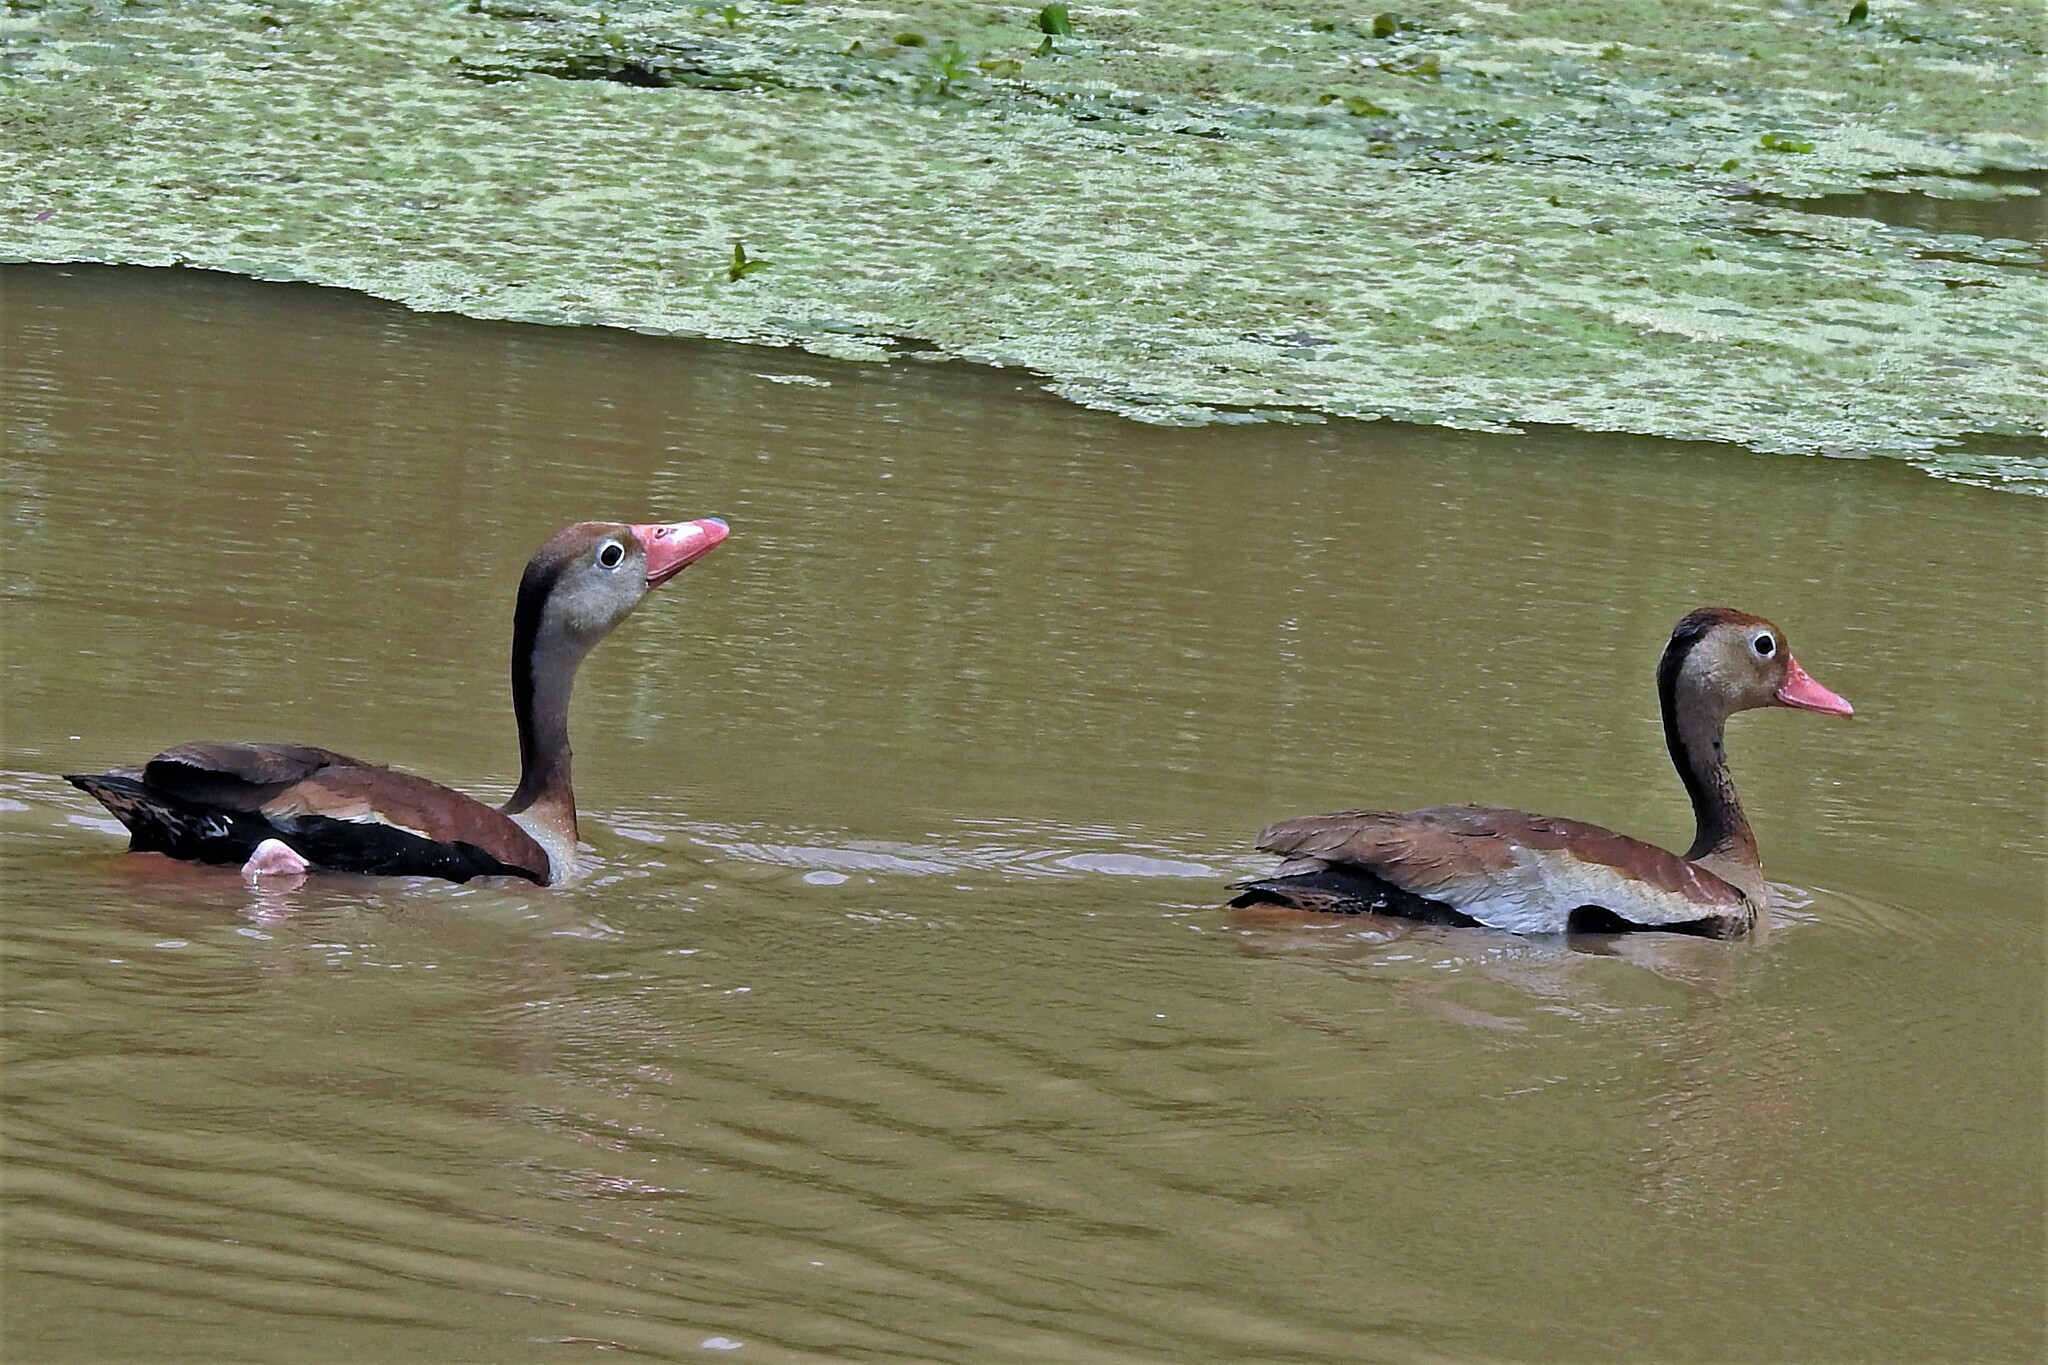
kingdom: Animalia
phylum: Chordata
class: Aves
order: Anseriformes
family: Anatidae
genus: Dendrocygna
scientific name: Dendrocygna autumnalis
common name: Black-bellied whistling duck
